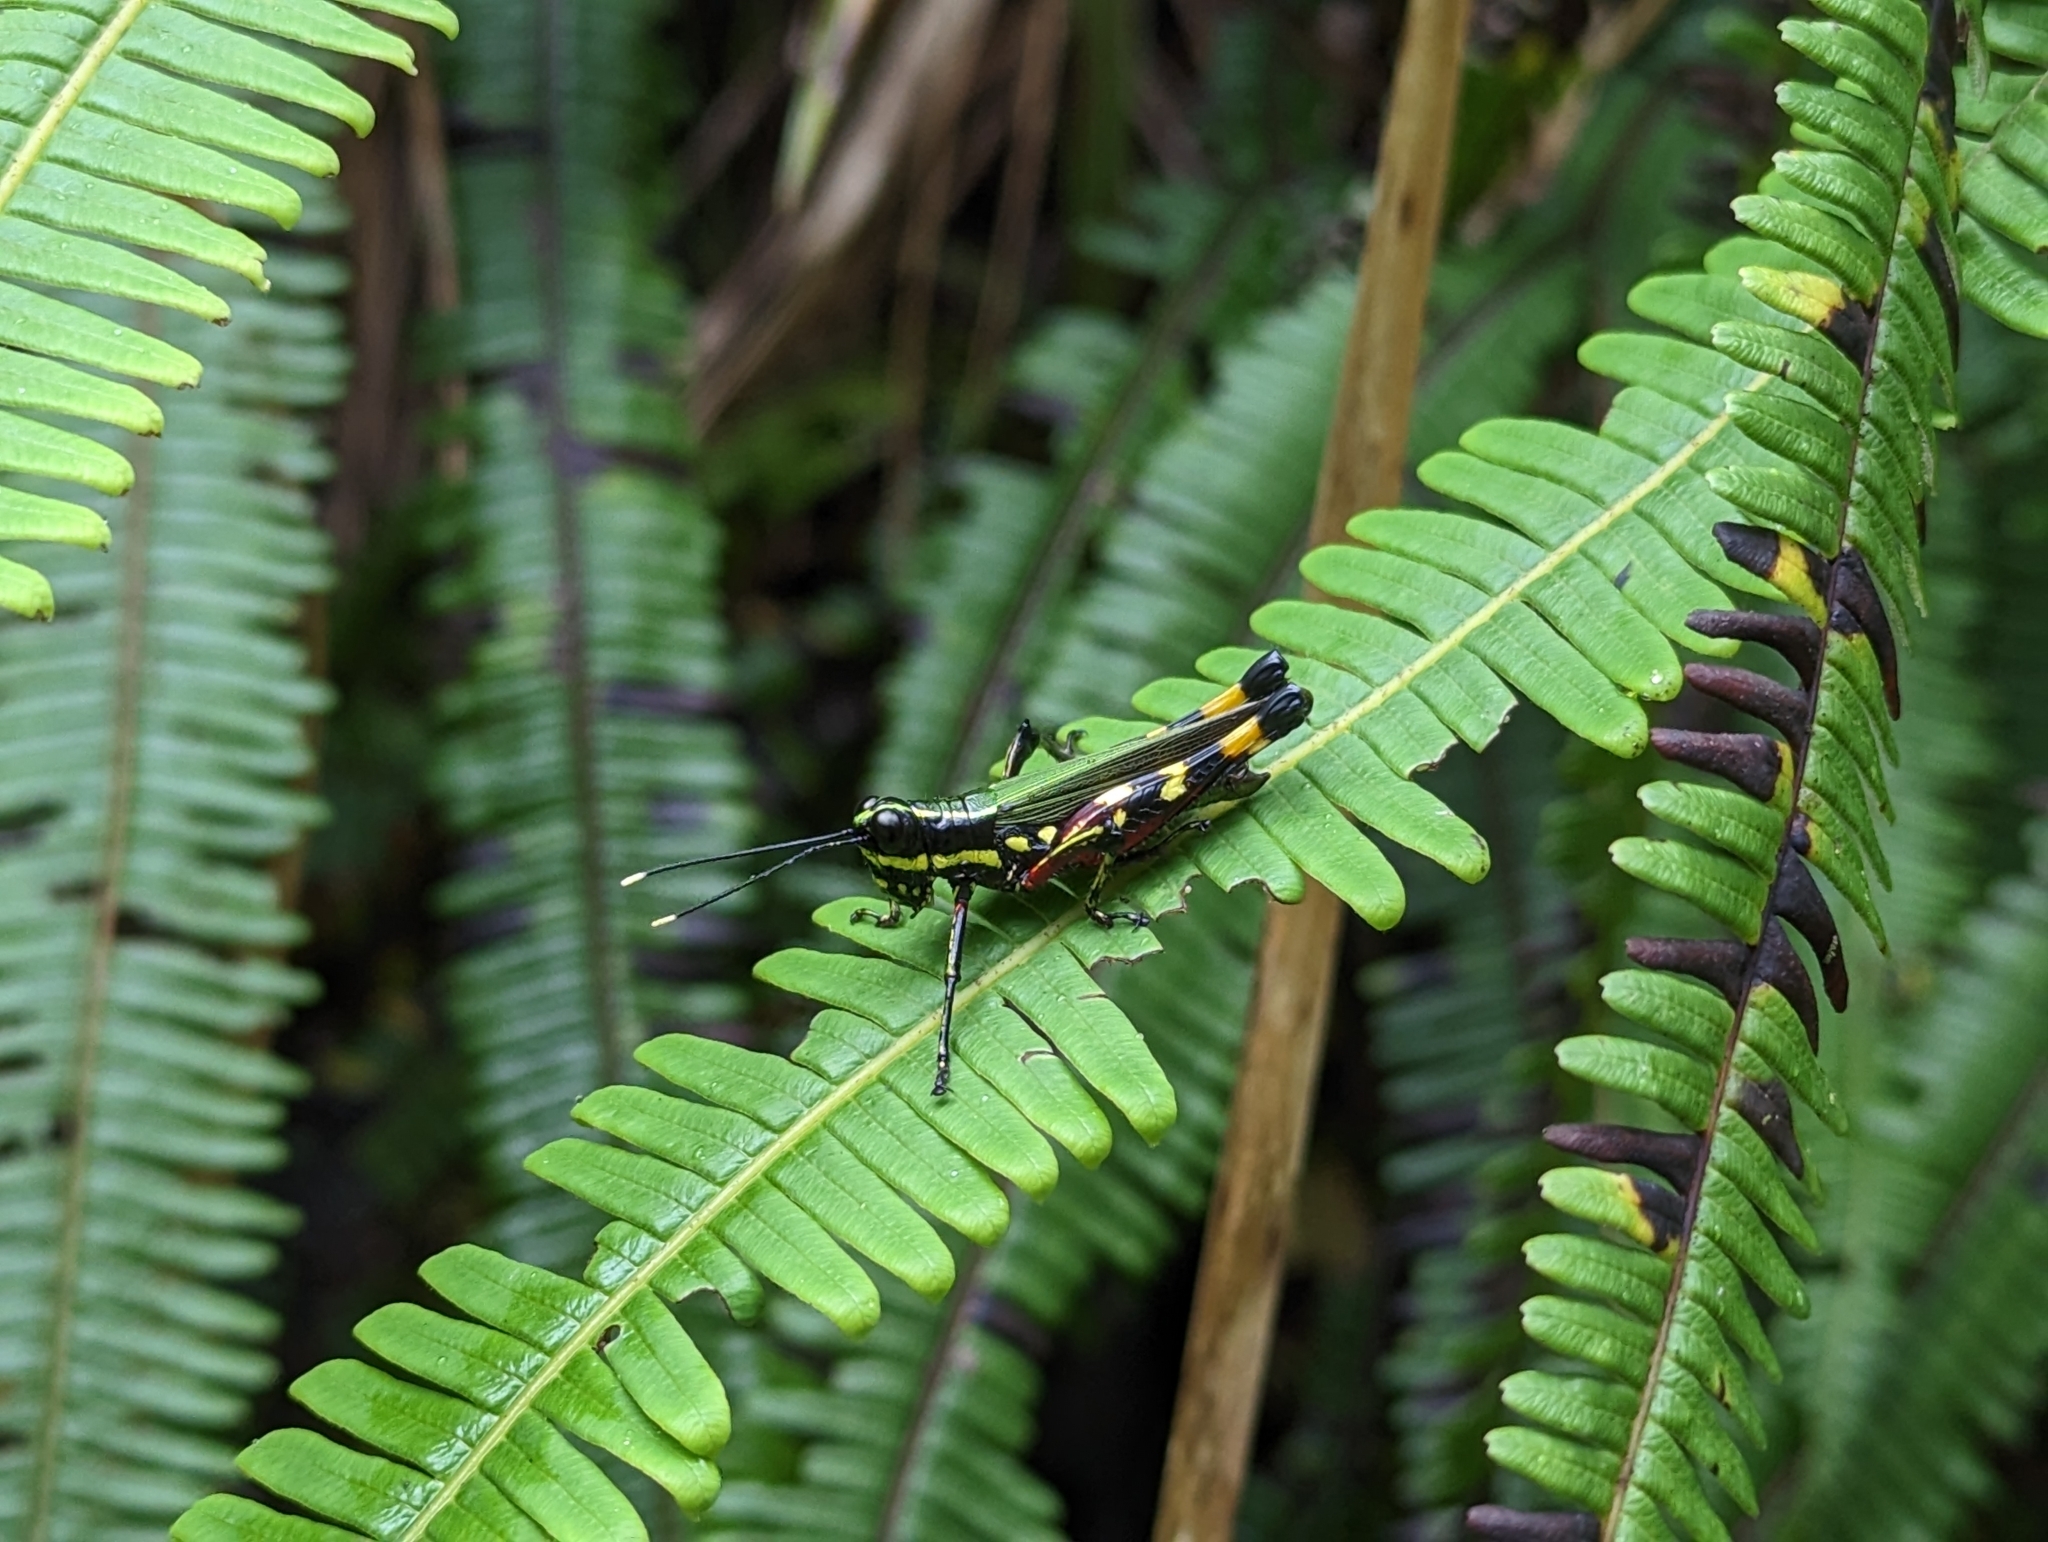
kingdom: Animalia
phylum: Arthropoda
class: Insecta
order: Orthoptera
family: Acrididae
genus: Tetrataenia
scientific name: Tetrataenia surinama
